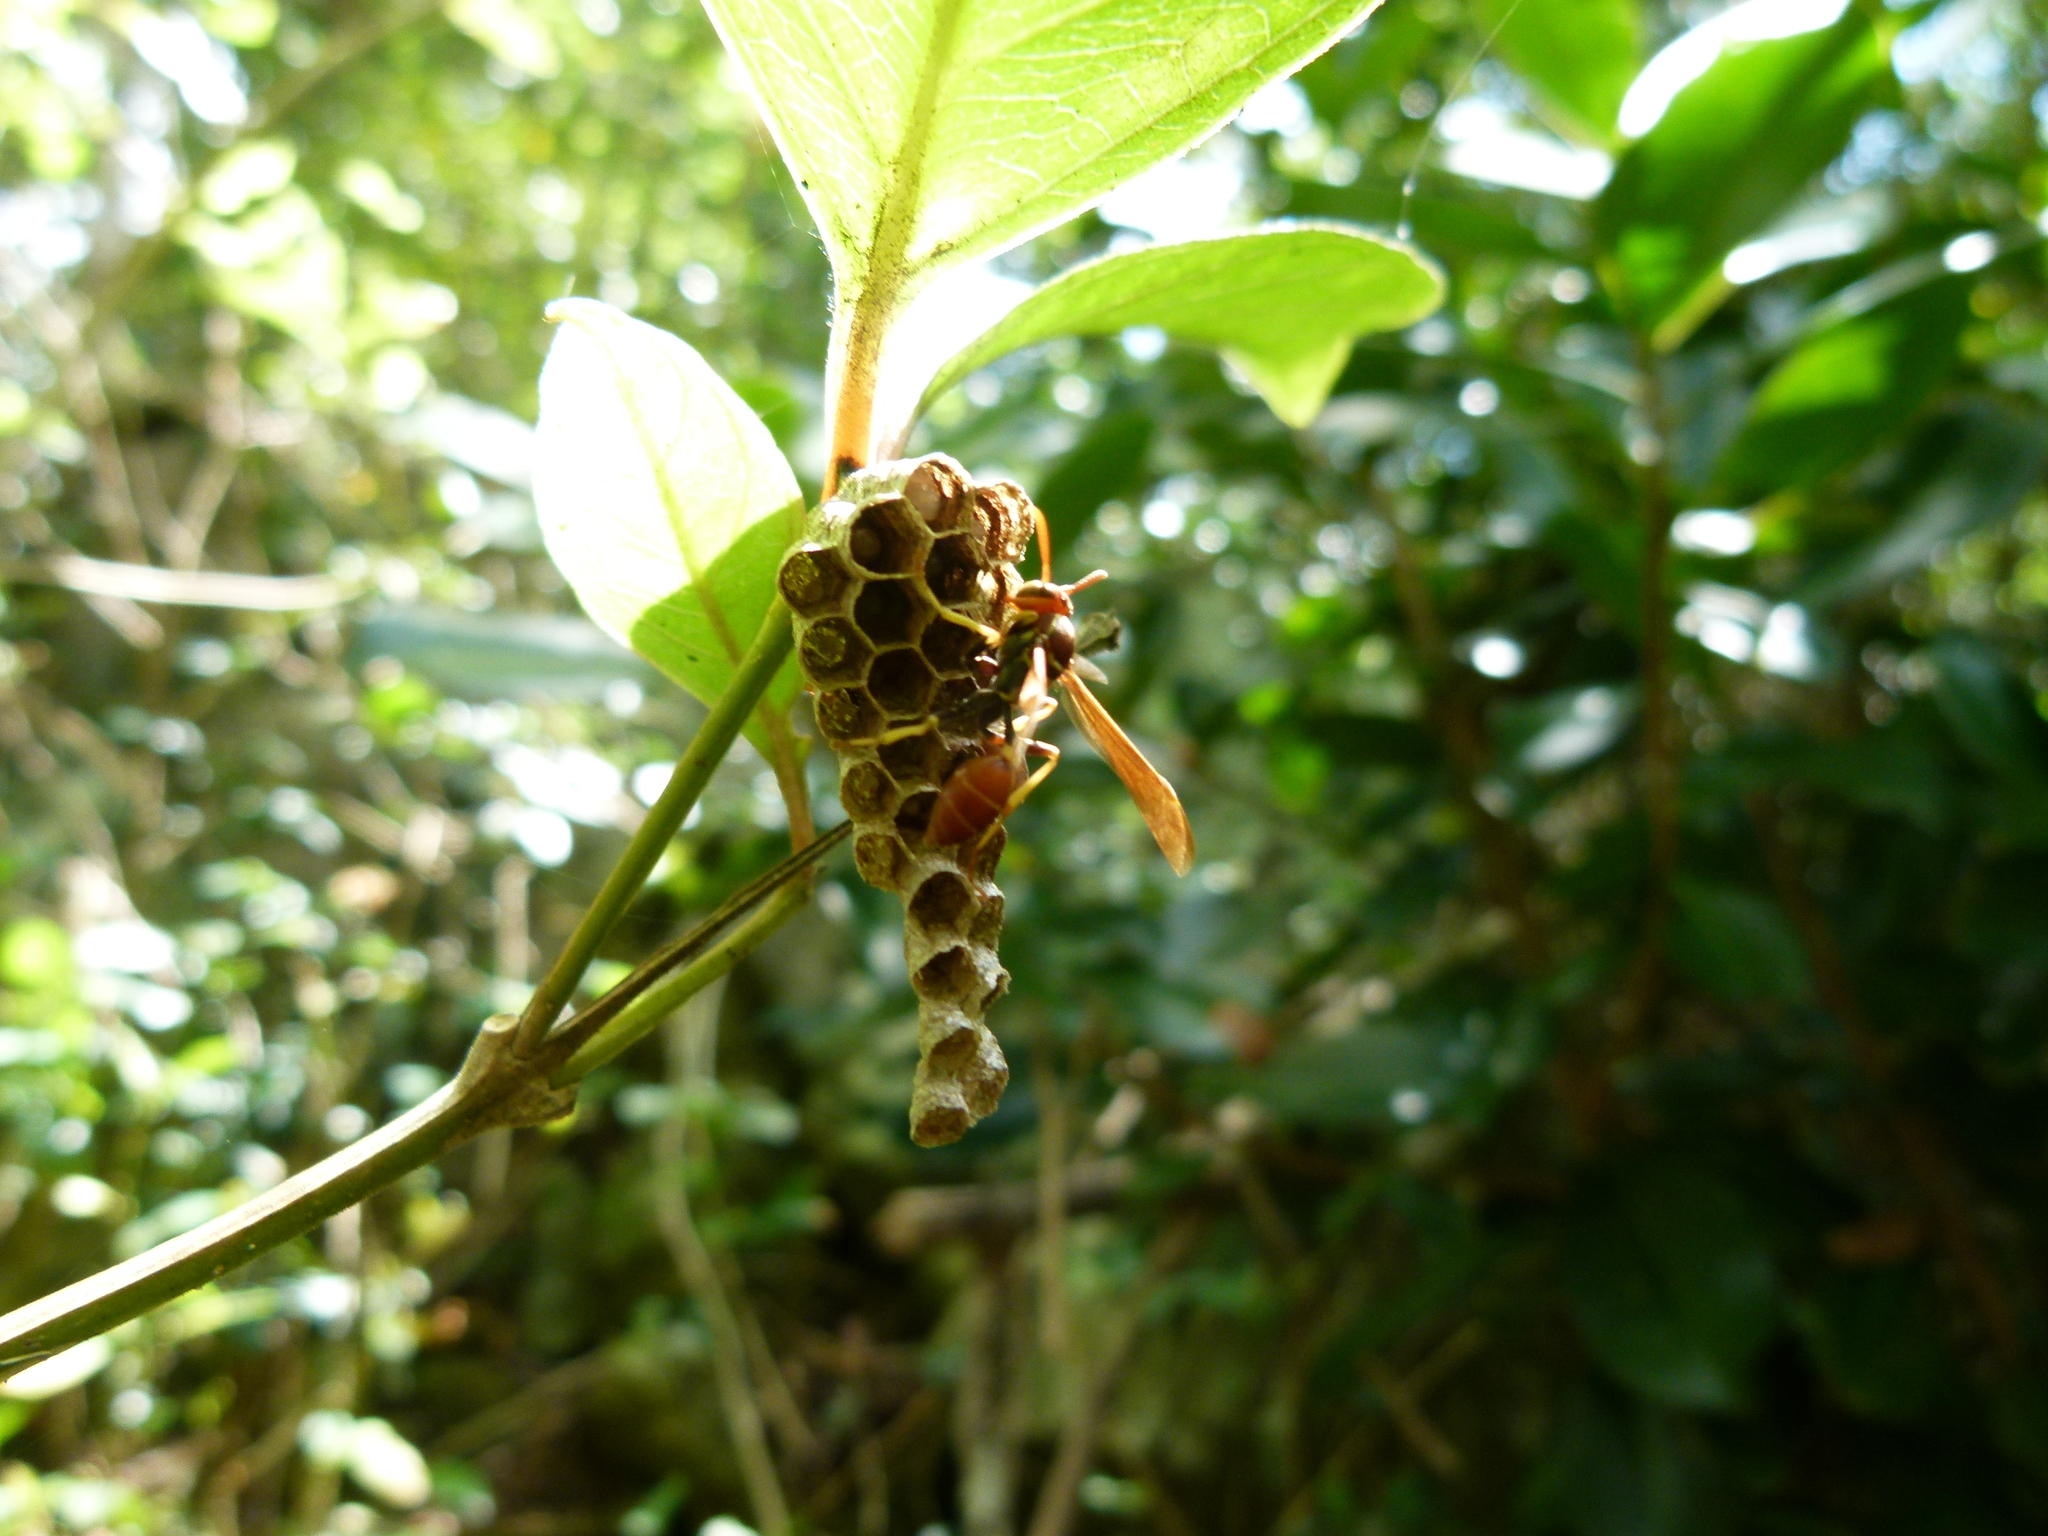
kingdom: Animalia
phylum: Arthropoda
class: Insecta
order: Hymenoptera
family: Vespidae
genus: Mischocyttarus
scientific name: Mischocyttarus phthisicus
